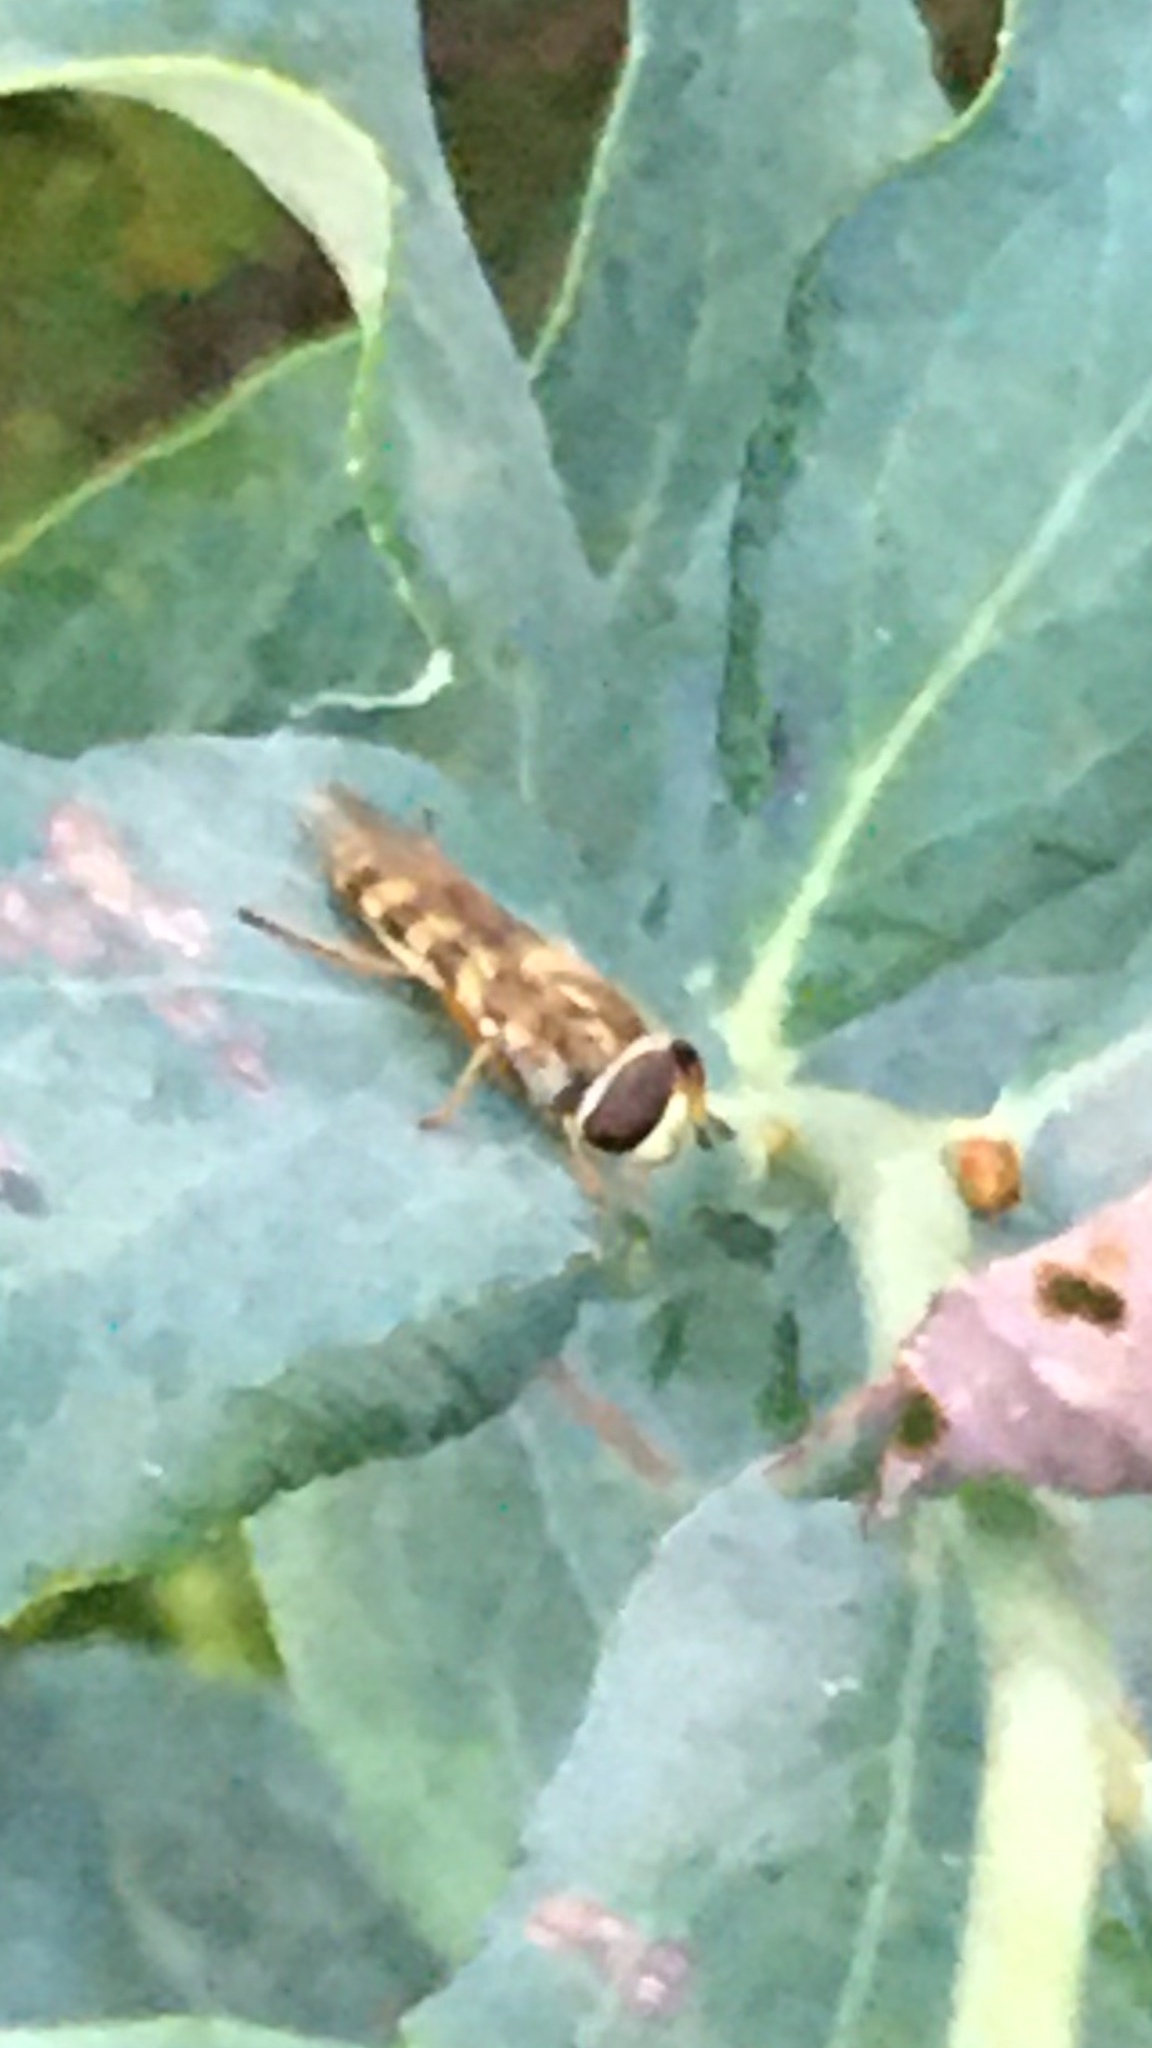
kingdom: Animalia
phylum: Arthropoda
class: Insecta
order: Diptera
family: Syrphidae
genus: Eupeodes
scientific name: Eupeodes corollae
